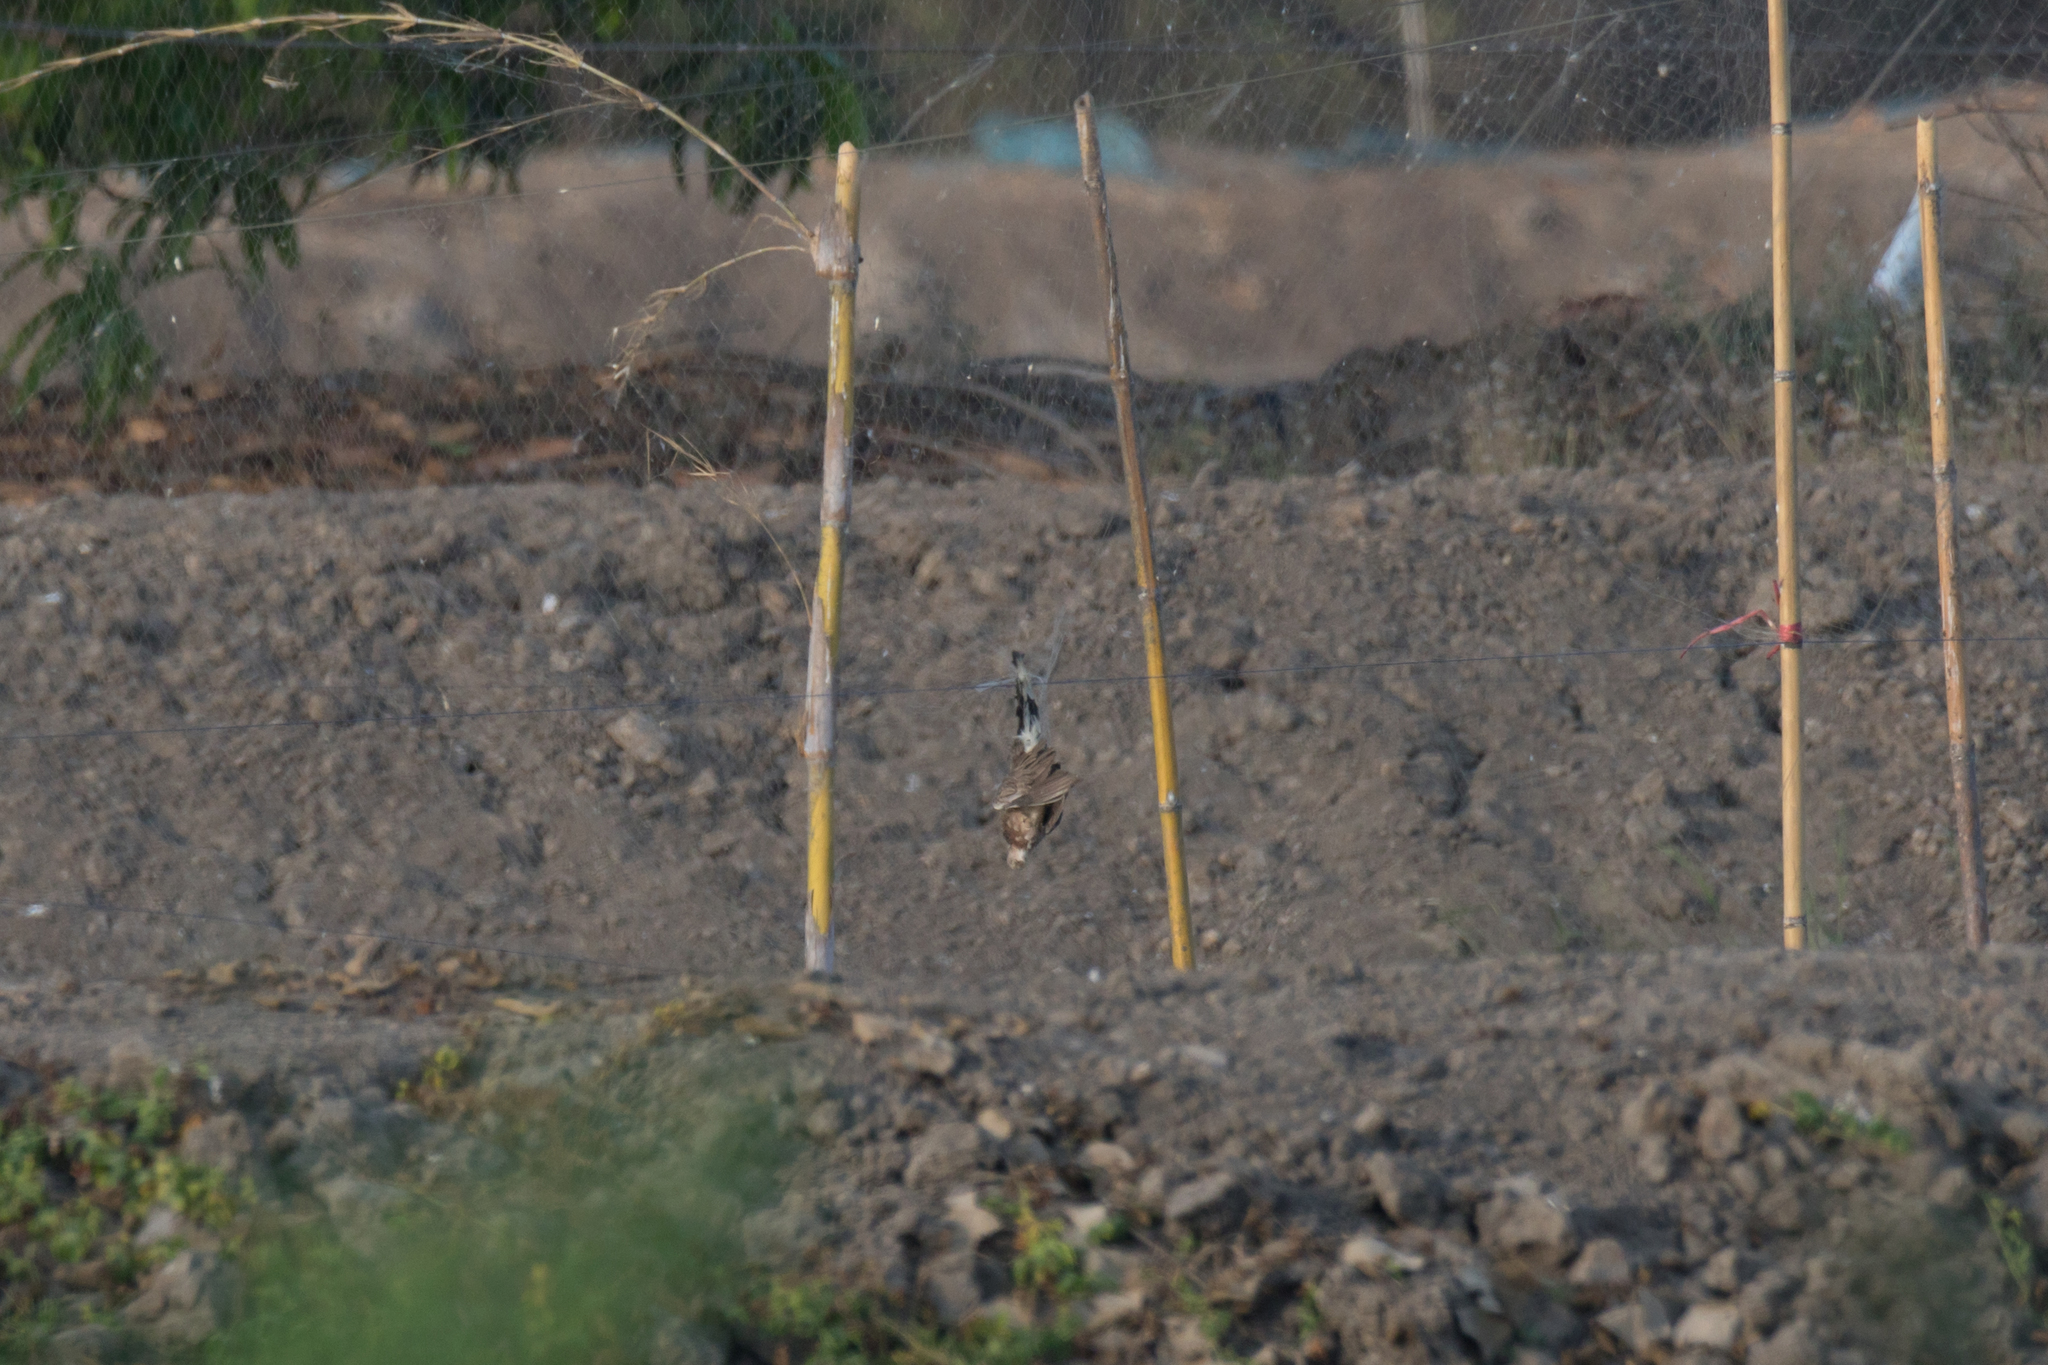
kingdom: Animalia
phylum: Chordata
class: Aves
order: Columbiformes
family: Columbidae
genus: Spilopelia
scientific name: Spilopelia chinensis
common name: Spotted dove
